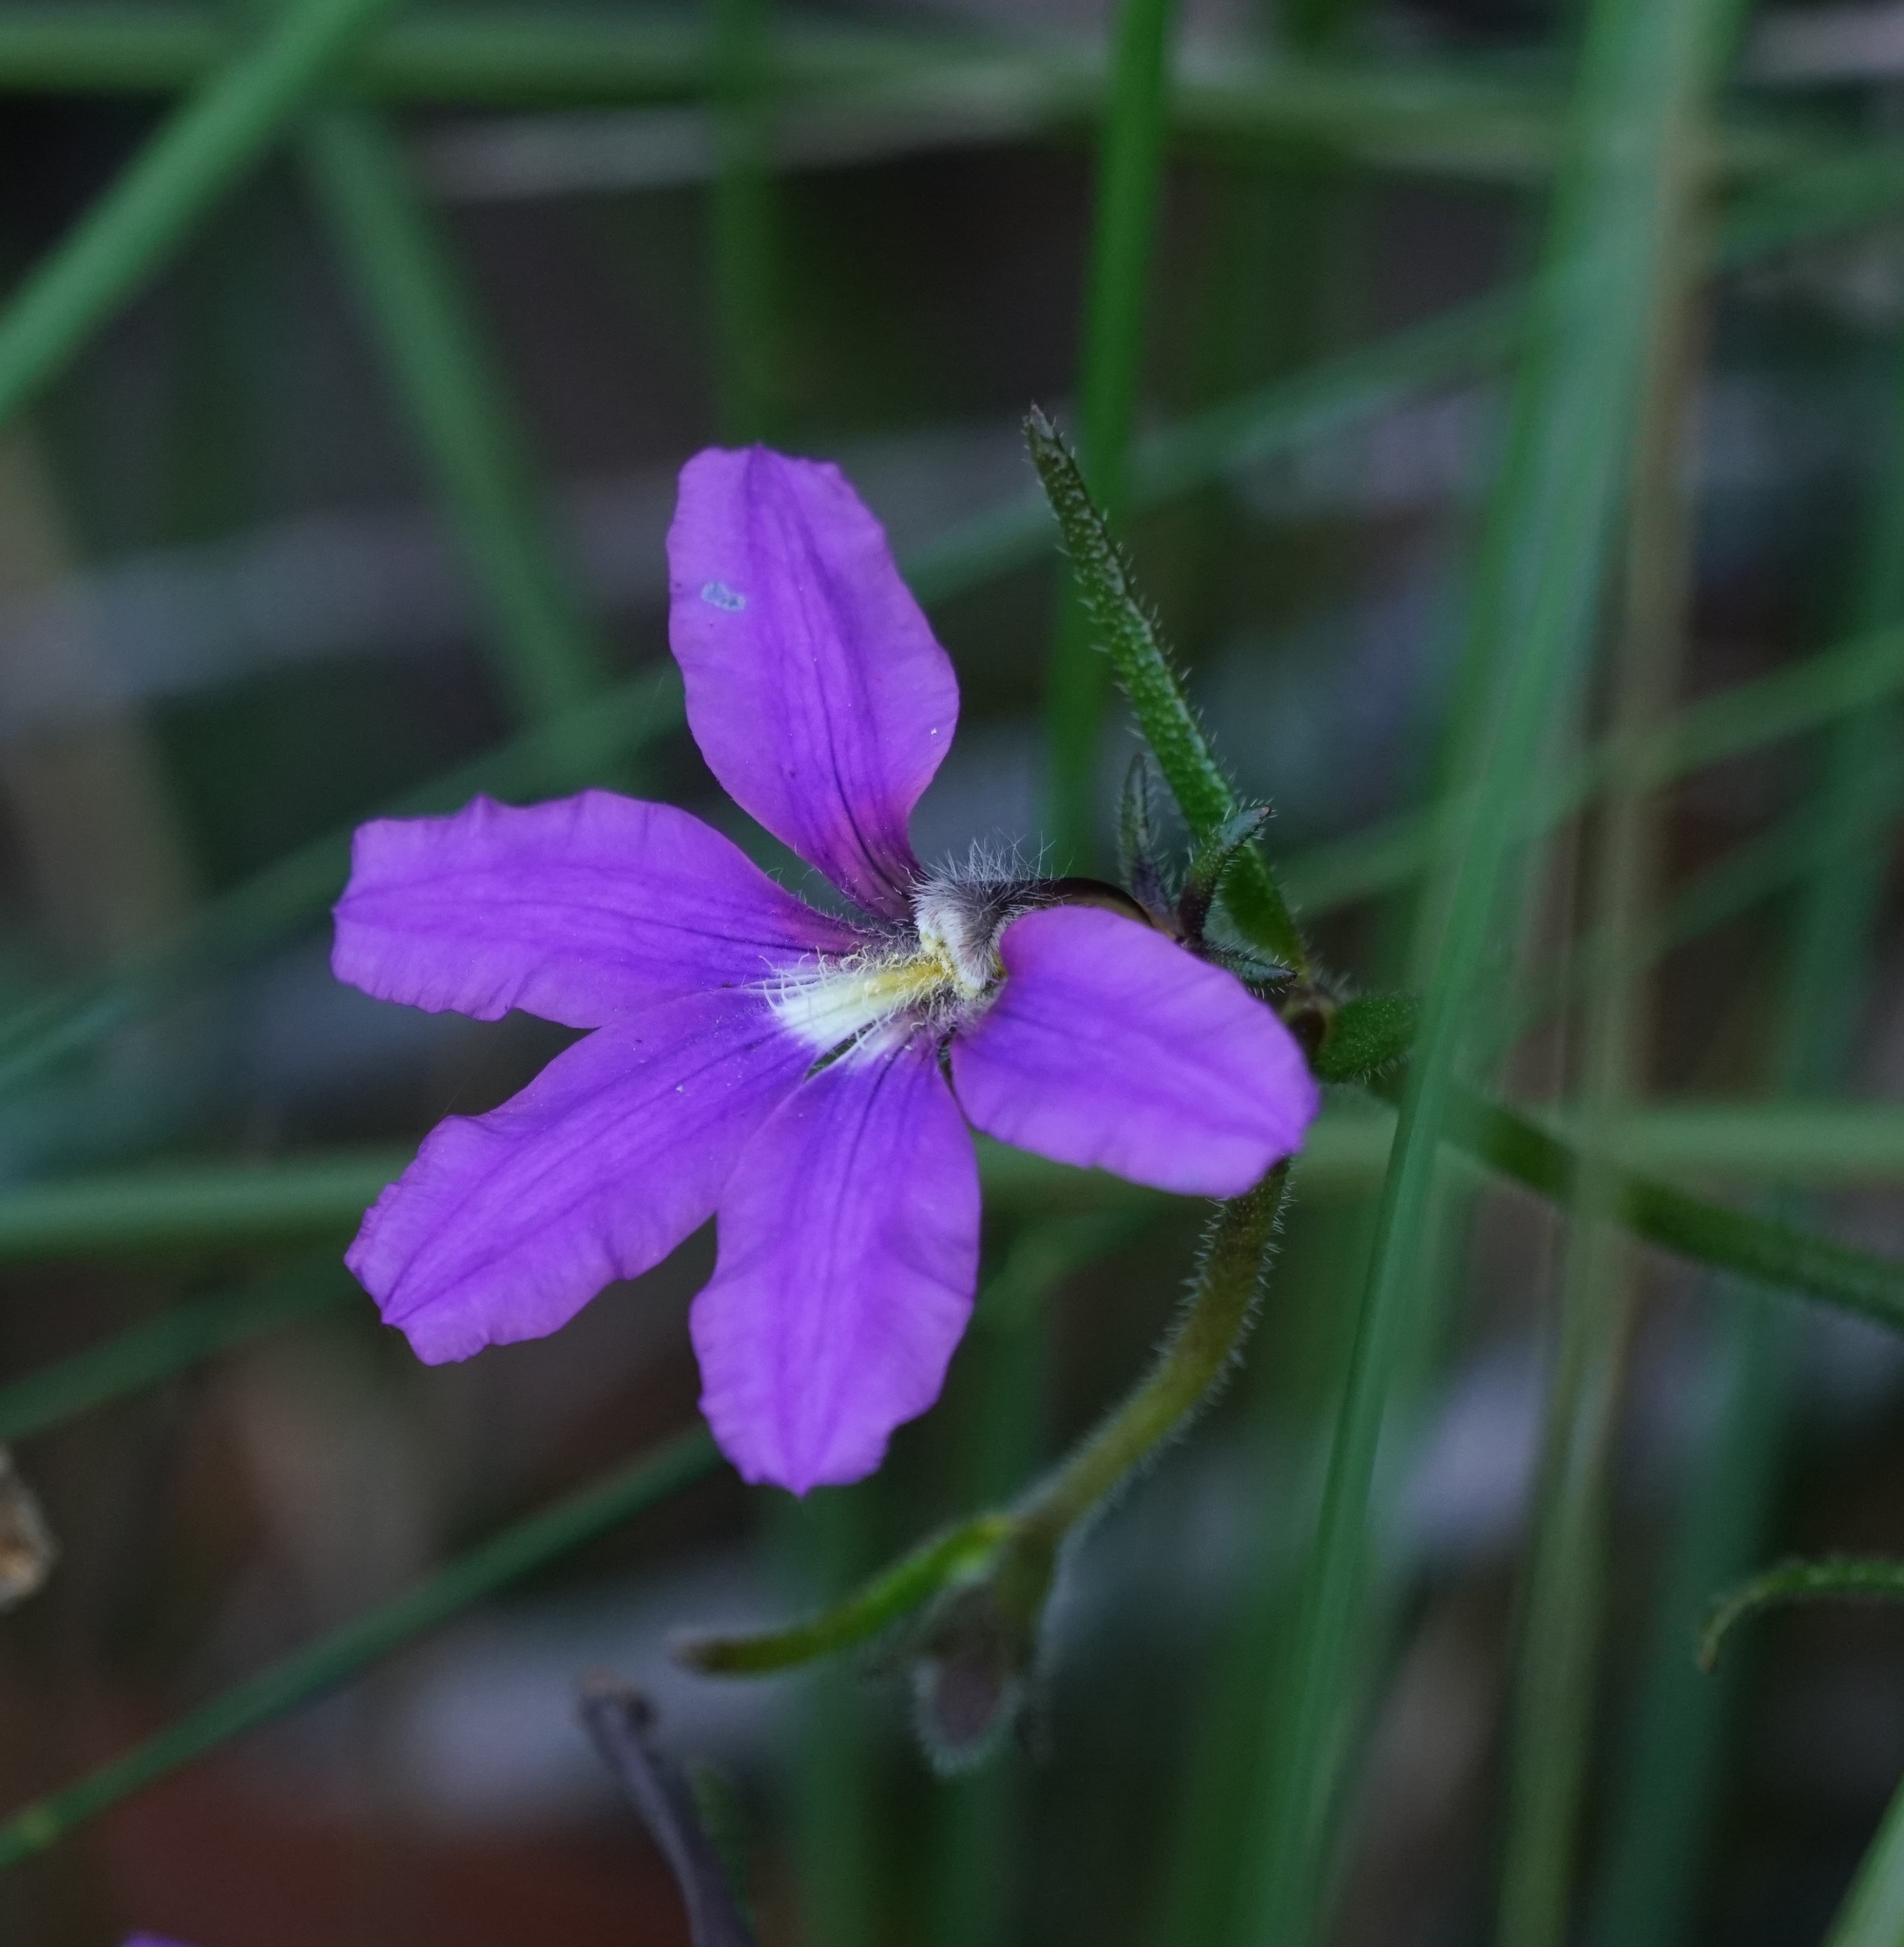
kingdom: Plantae
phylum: Tracheophyta
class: Magnoliopsida
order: Asterales
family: Goodeniaceae
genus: Scaevola
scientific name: Scaevola ramosissima
